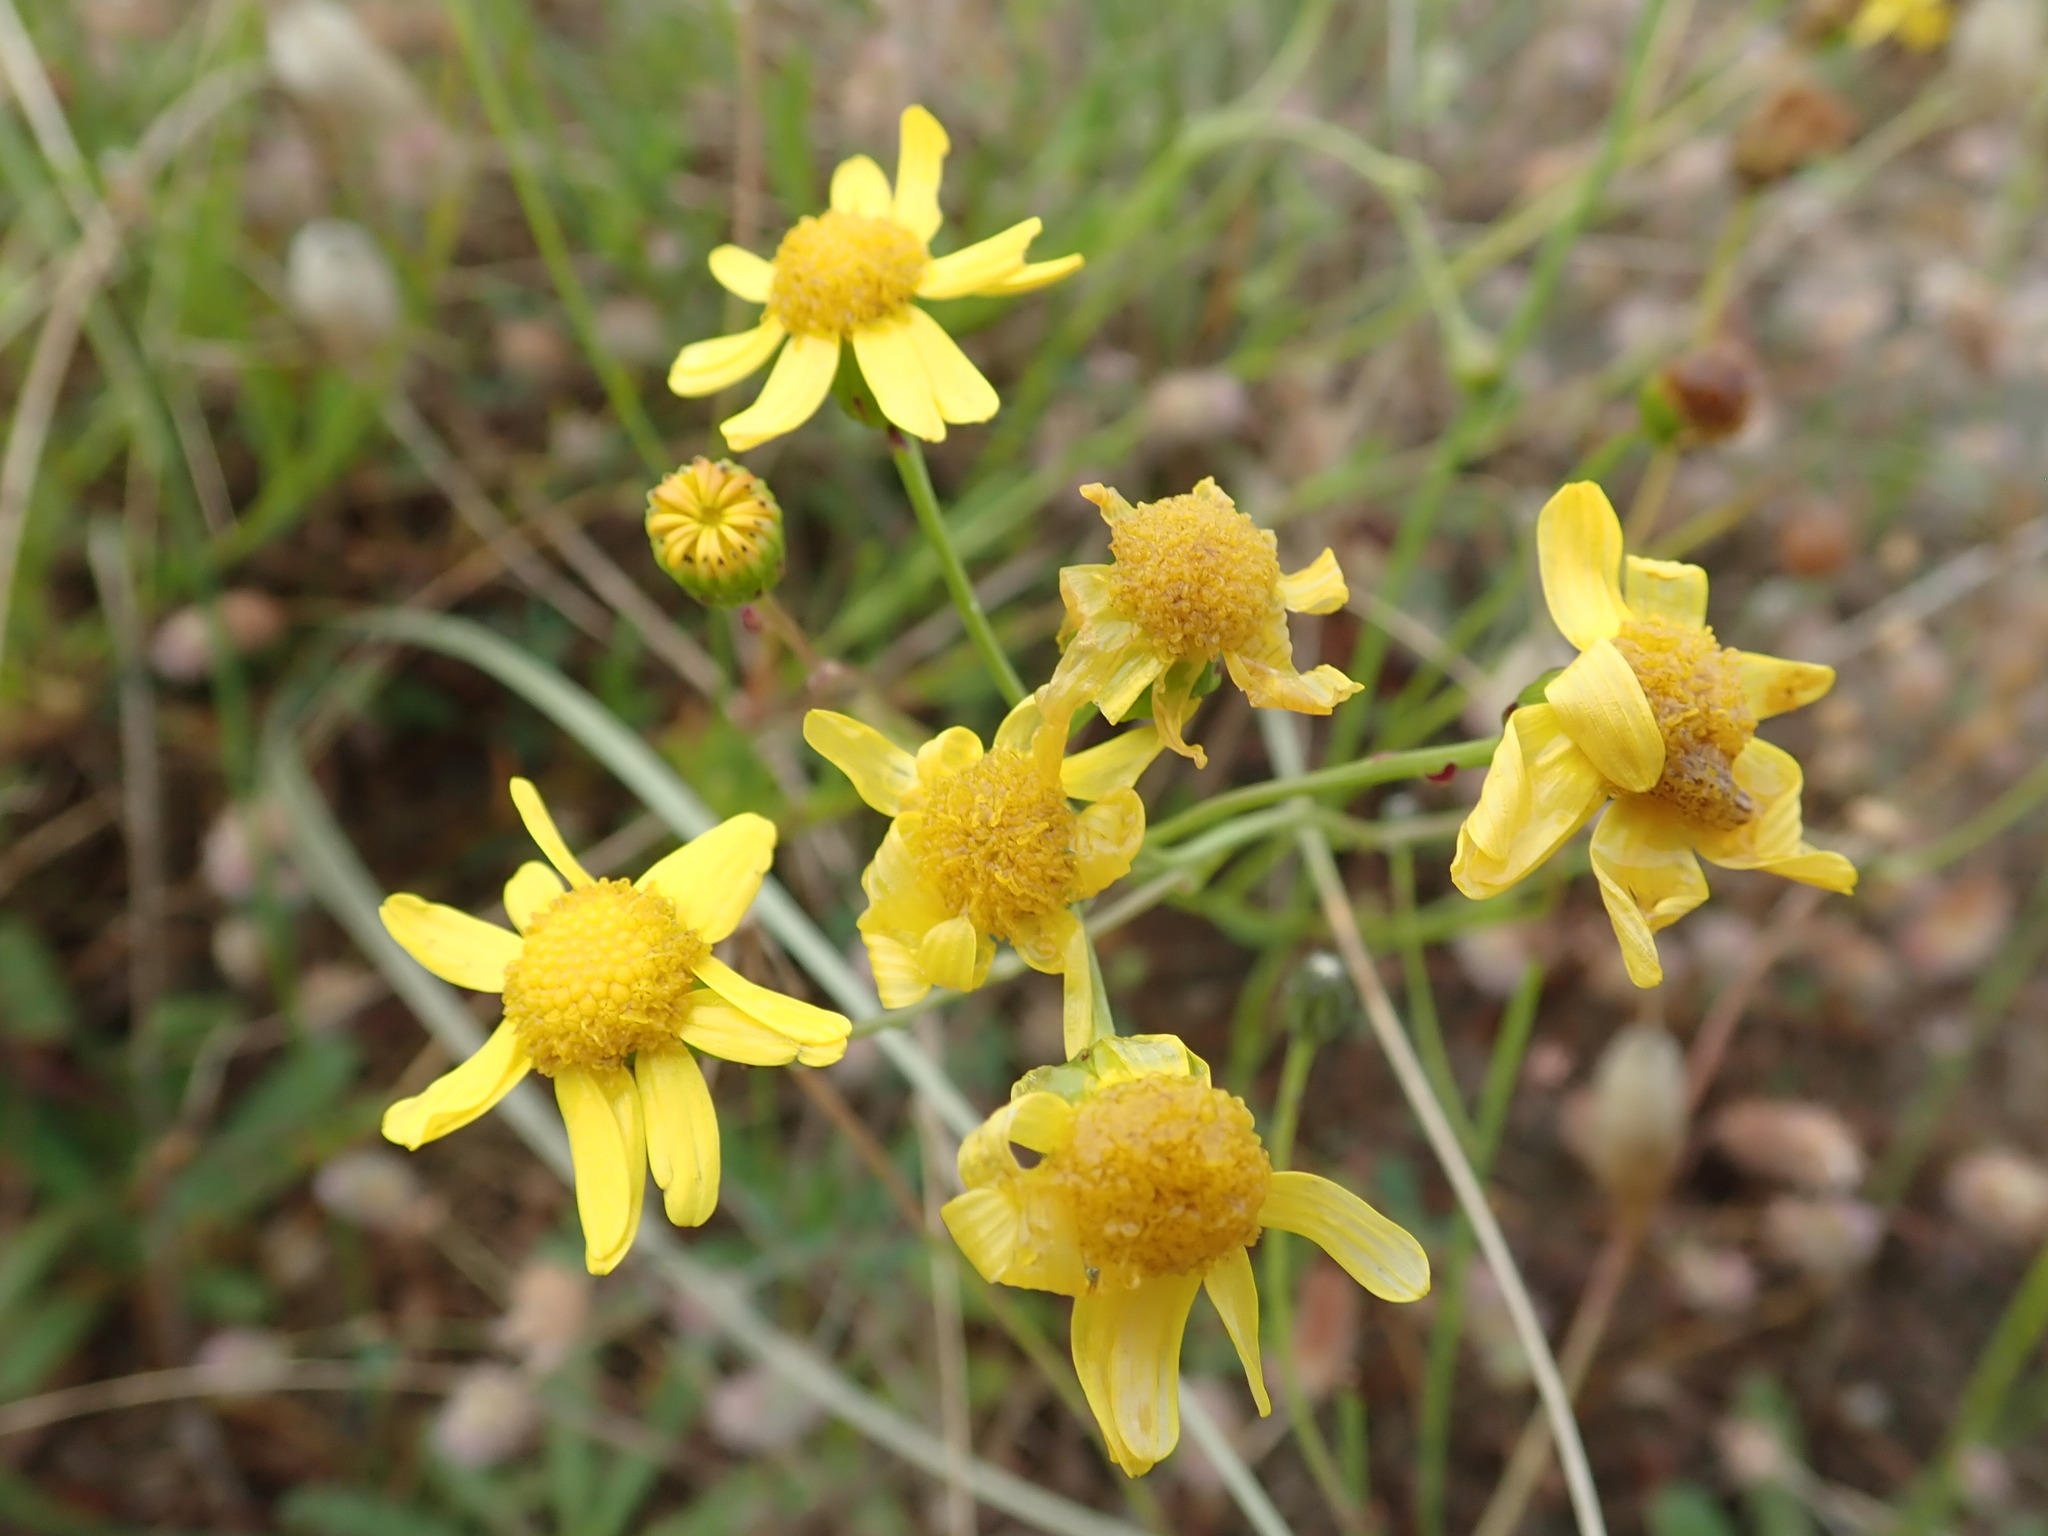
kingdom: Plantae
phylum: Tracheophyta
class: Magnoliopsida
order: Asterales
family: Asteraceae
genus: Senecio
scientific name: Senecio skirrhodon
